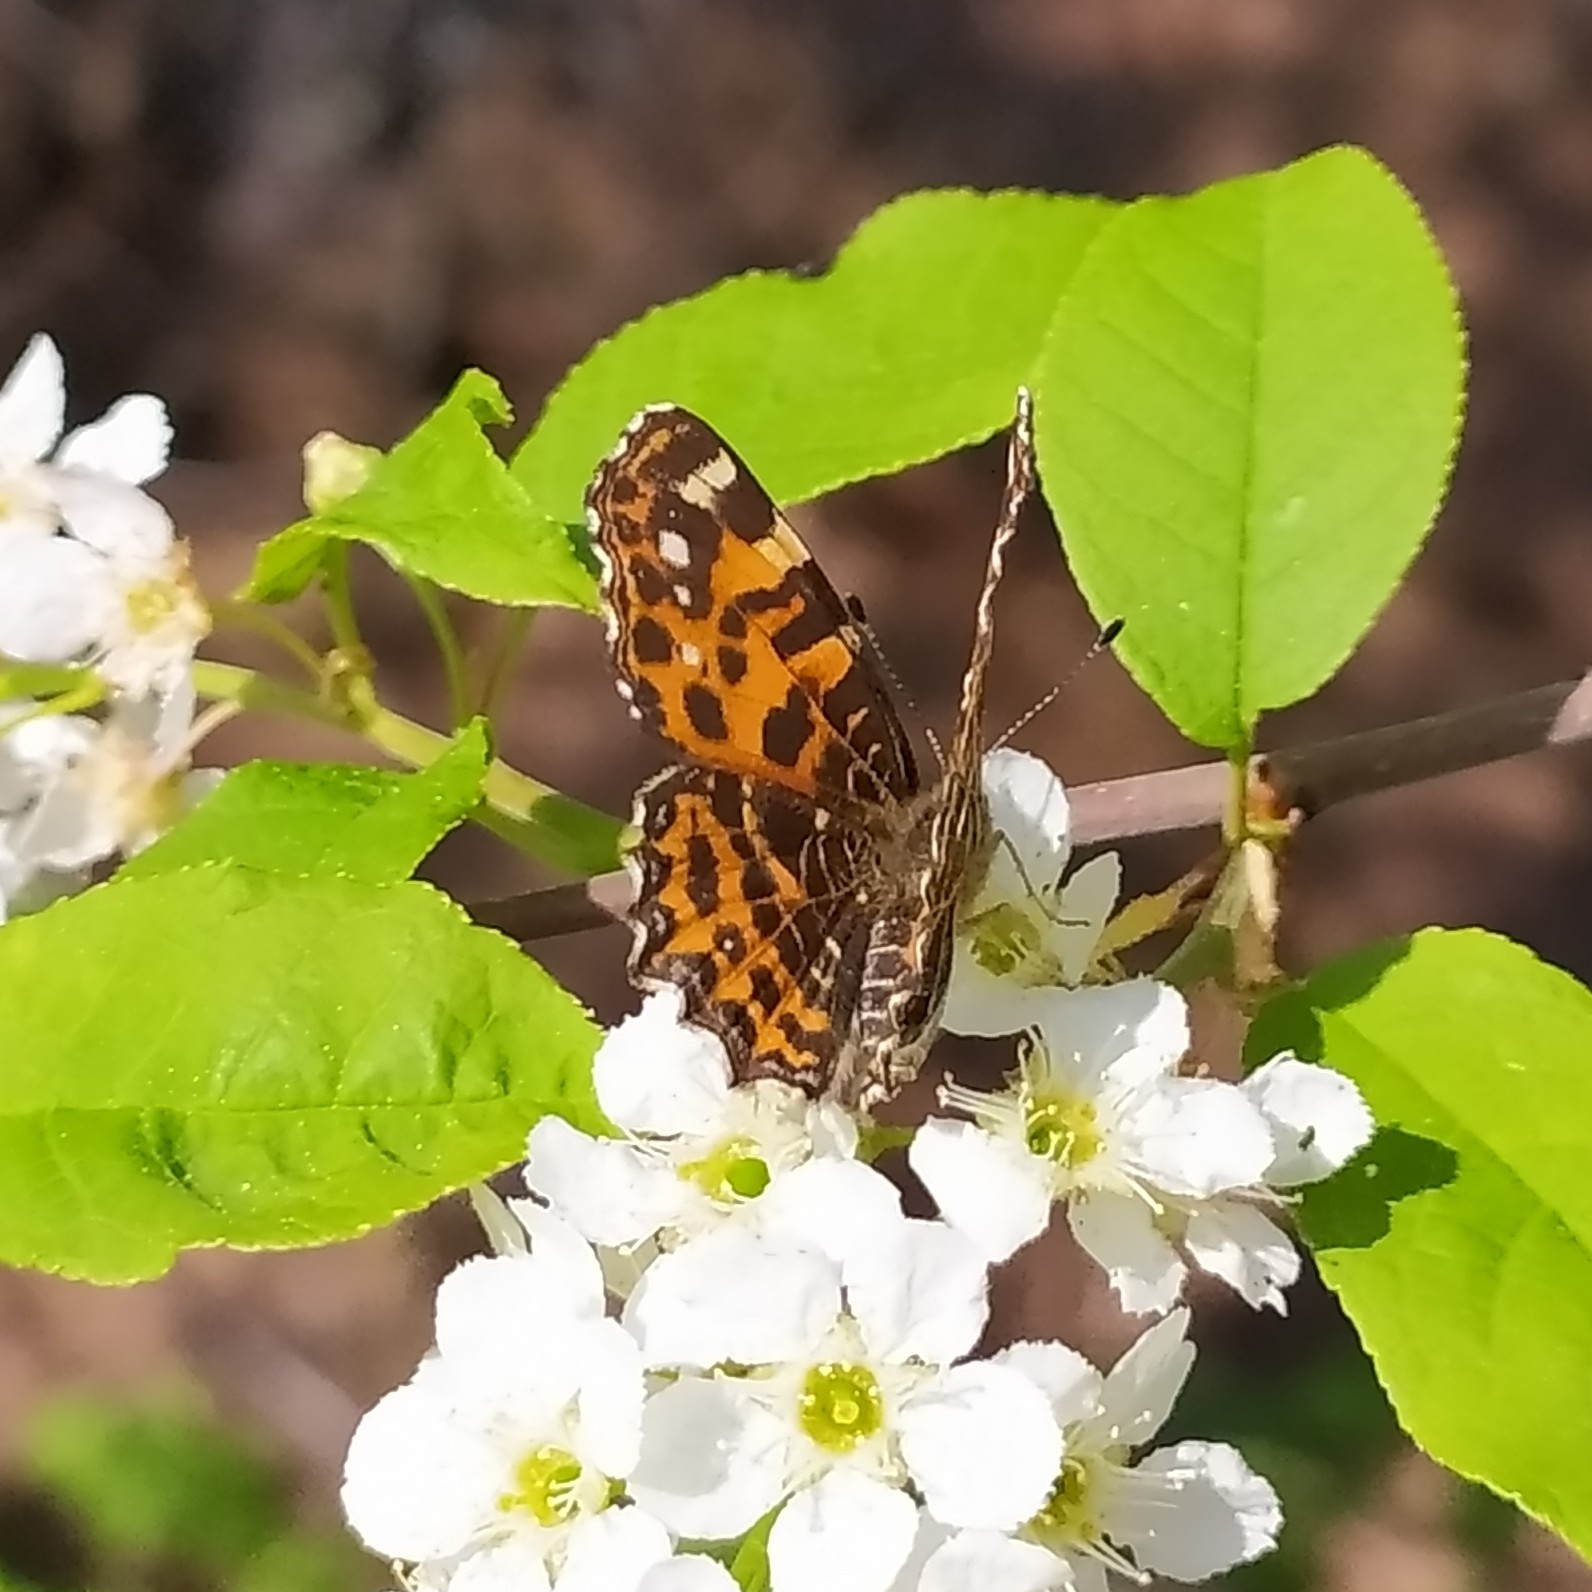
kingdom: Animalia
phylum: Arthropoda
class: Insecta
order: Lepidoptera
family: Nymphalidae
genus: Araschnia
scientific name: Araschnia levana
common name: Map butterfly
